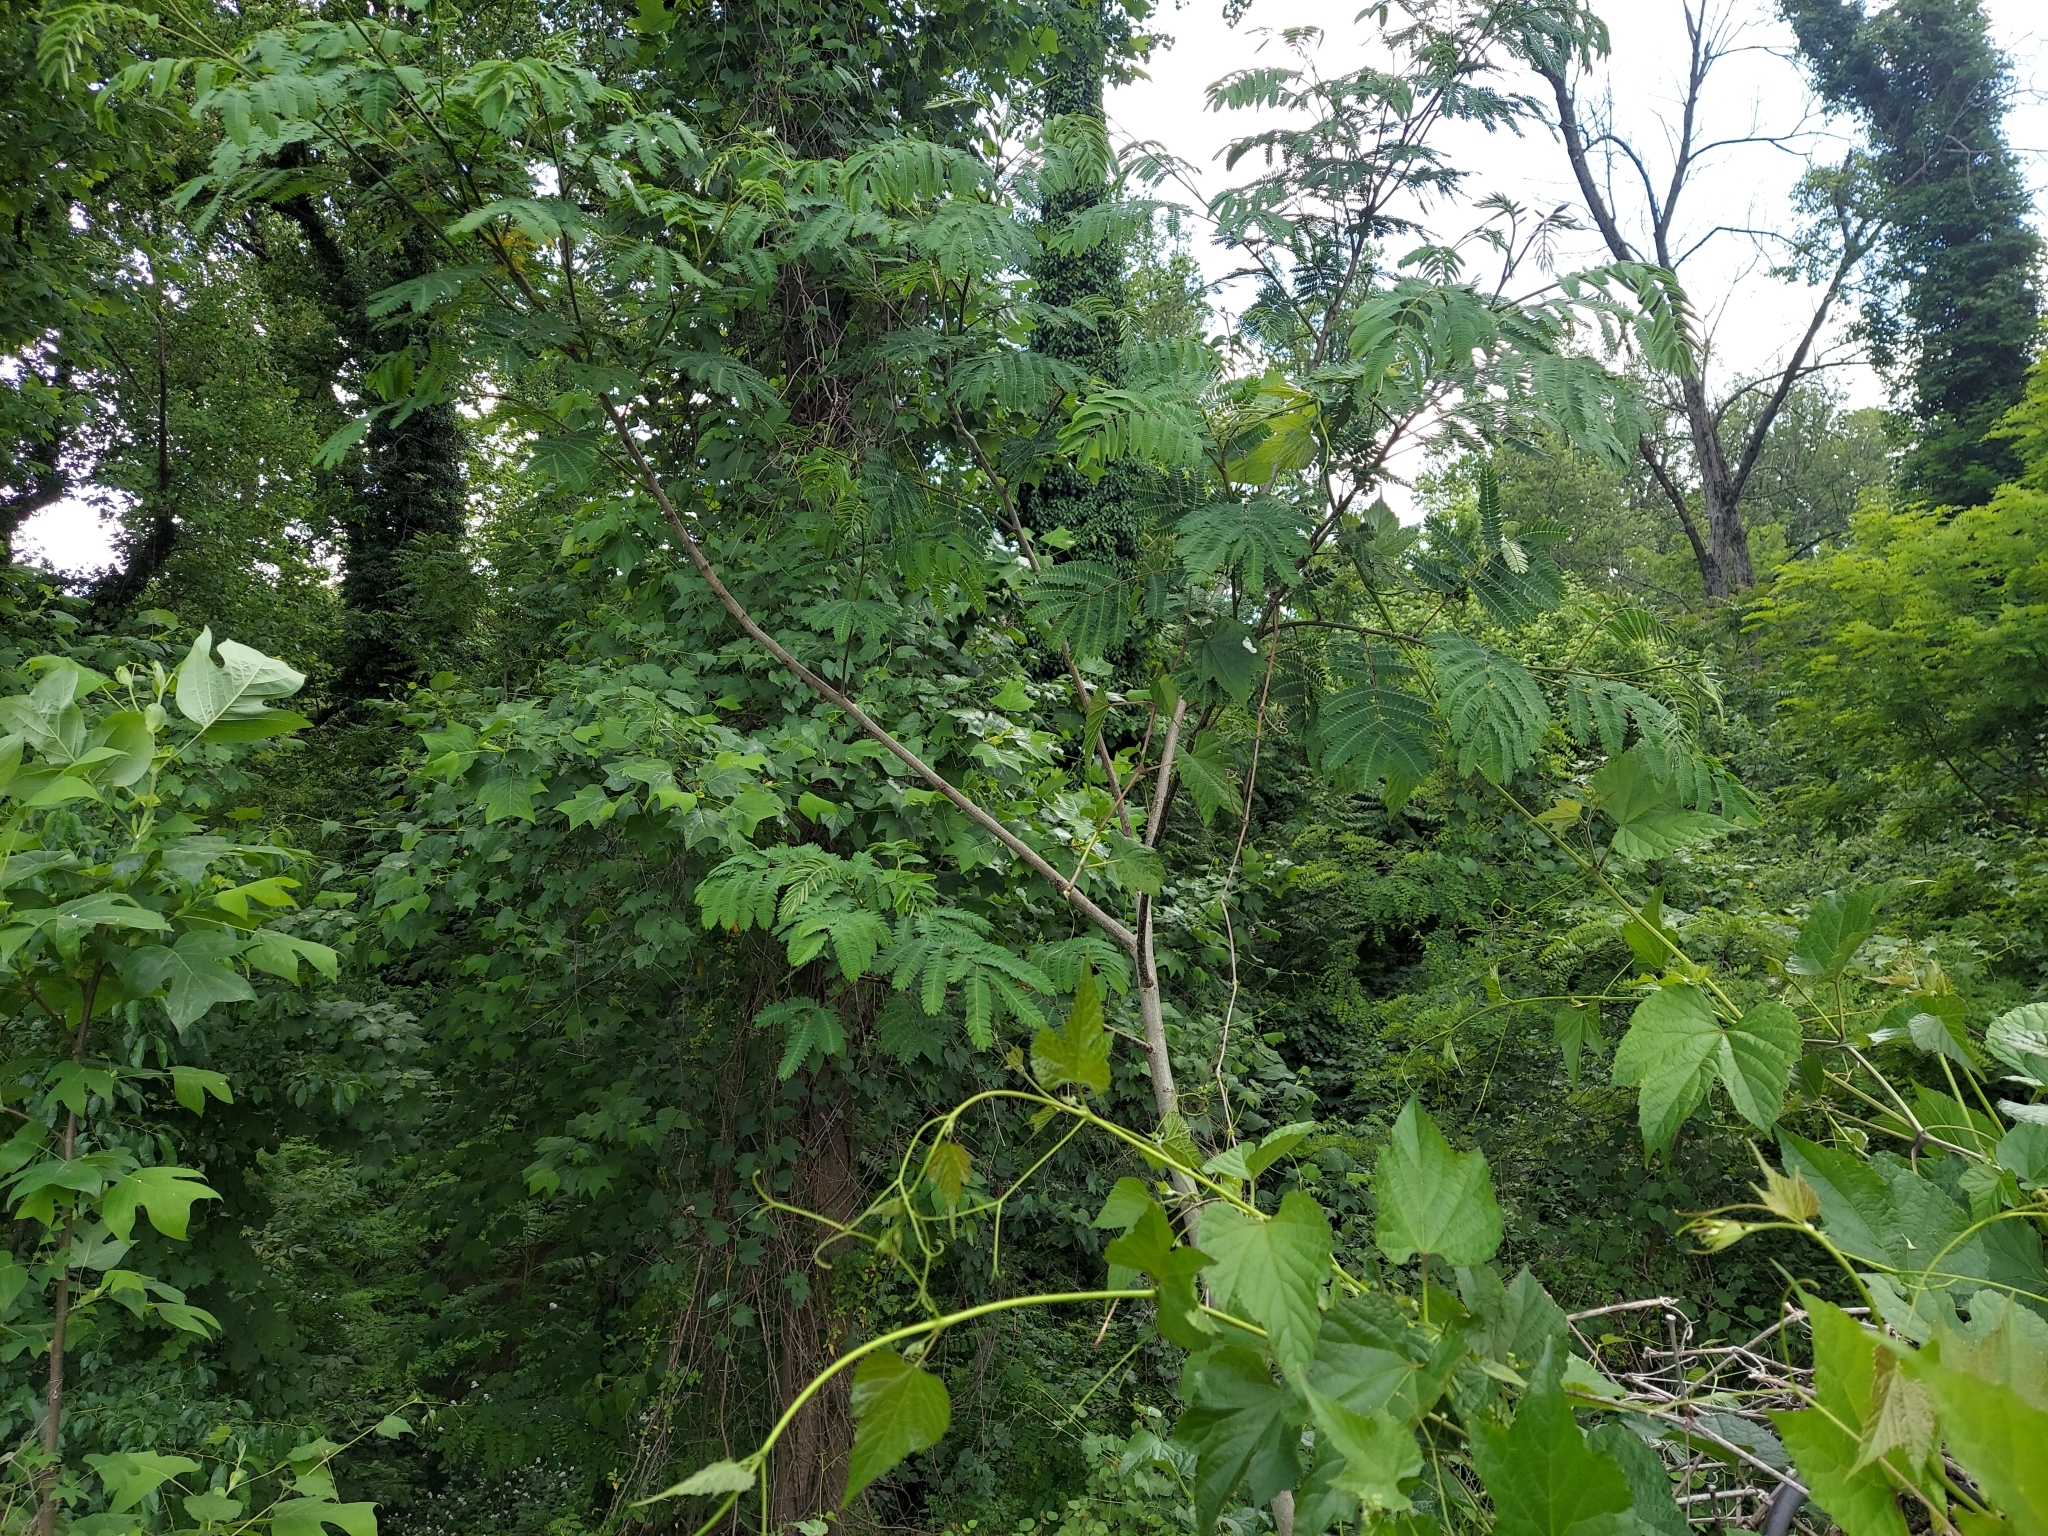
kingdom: Plantae
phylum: Tracheophyta
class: Magnoliopsida
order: Fabales
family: Fabaceae
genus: Albizia
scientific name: Albizia julibrissin
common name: Silktree
